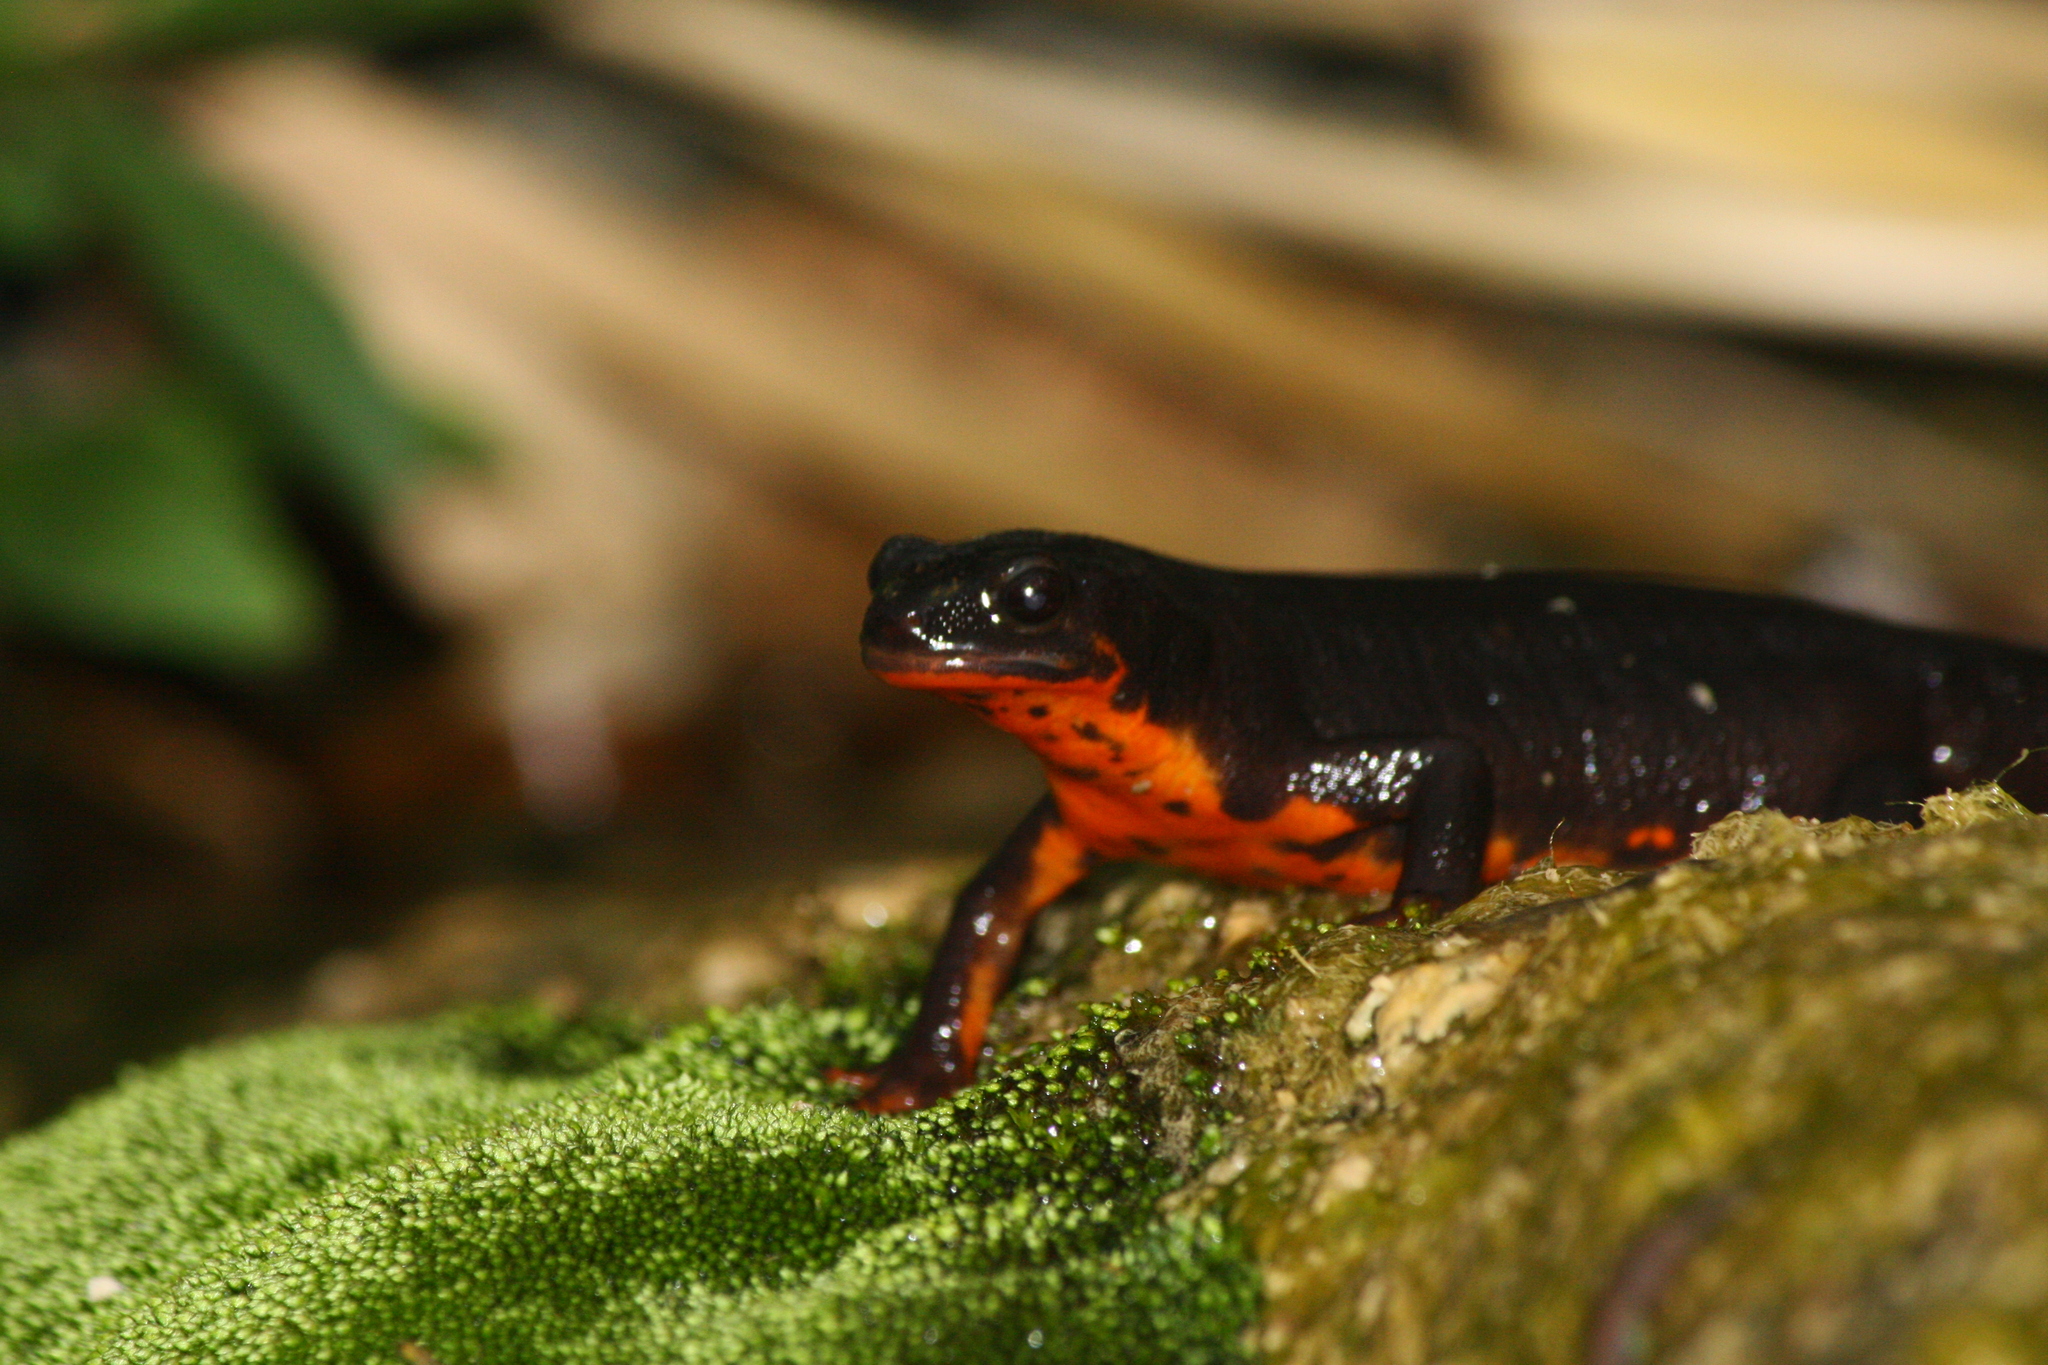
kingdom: Animalia
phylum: Chordata
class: Amphibia
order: Caudata
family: Salamandridae
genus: Cynops
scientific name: Cynops ensicauda
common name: Sword-tailed newt
